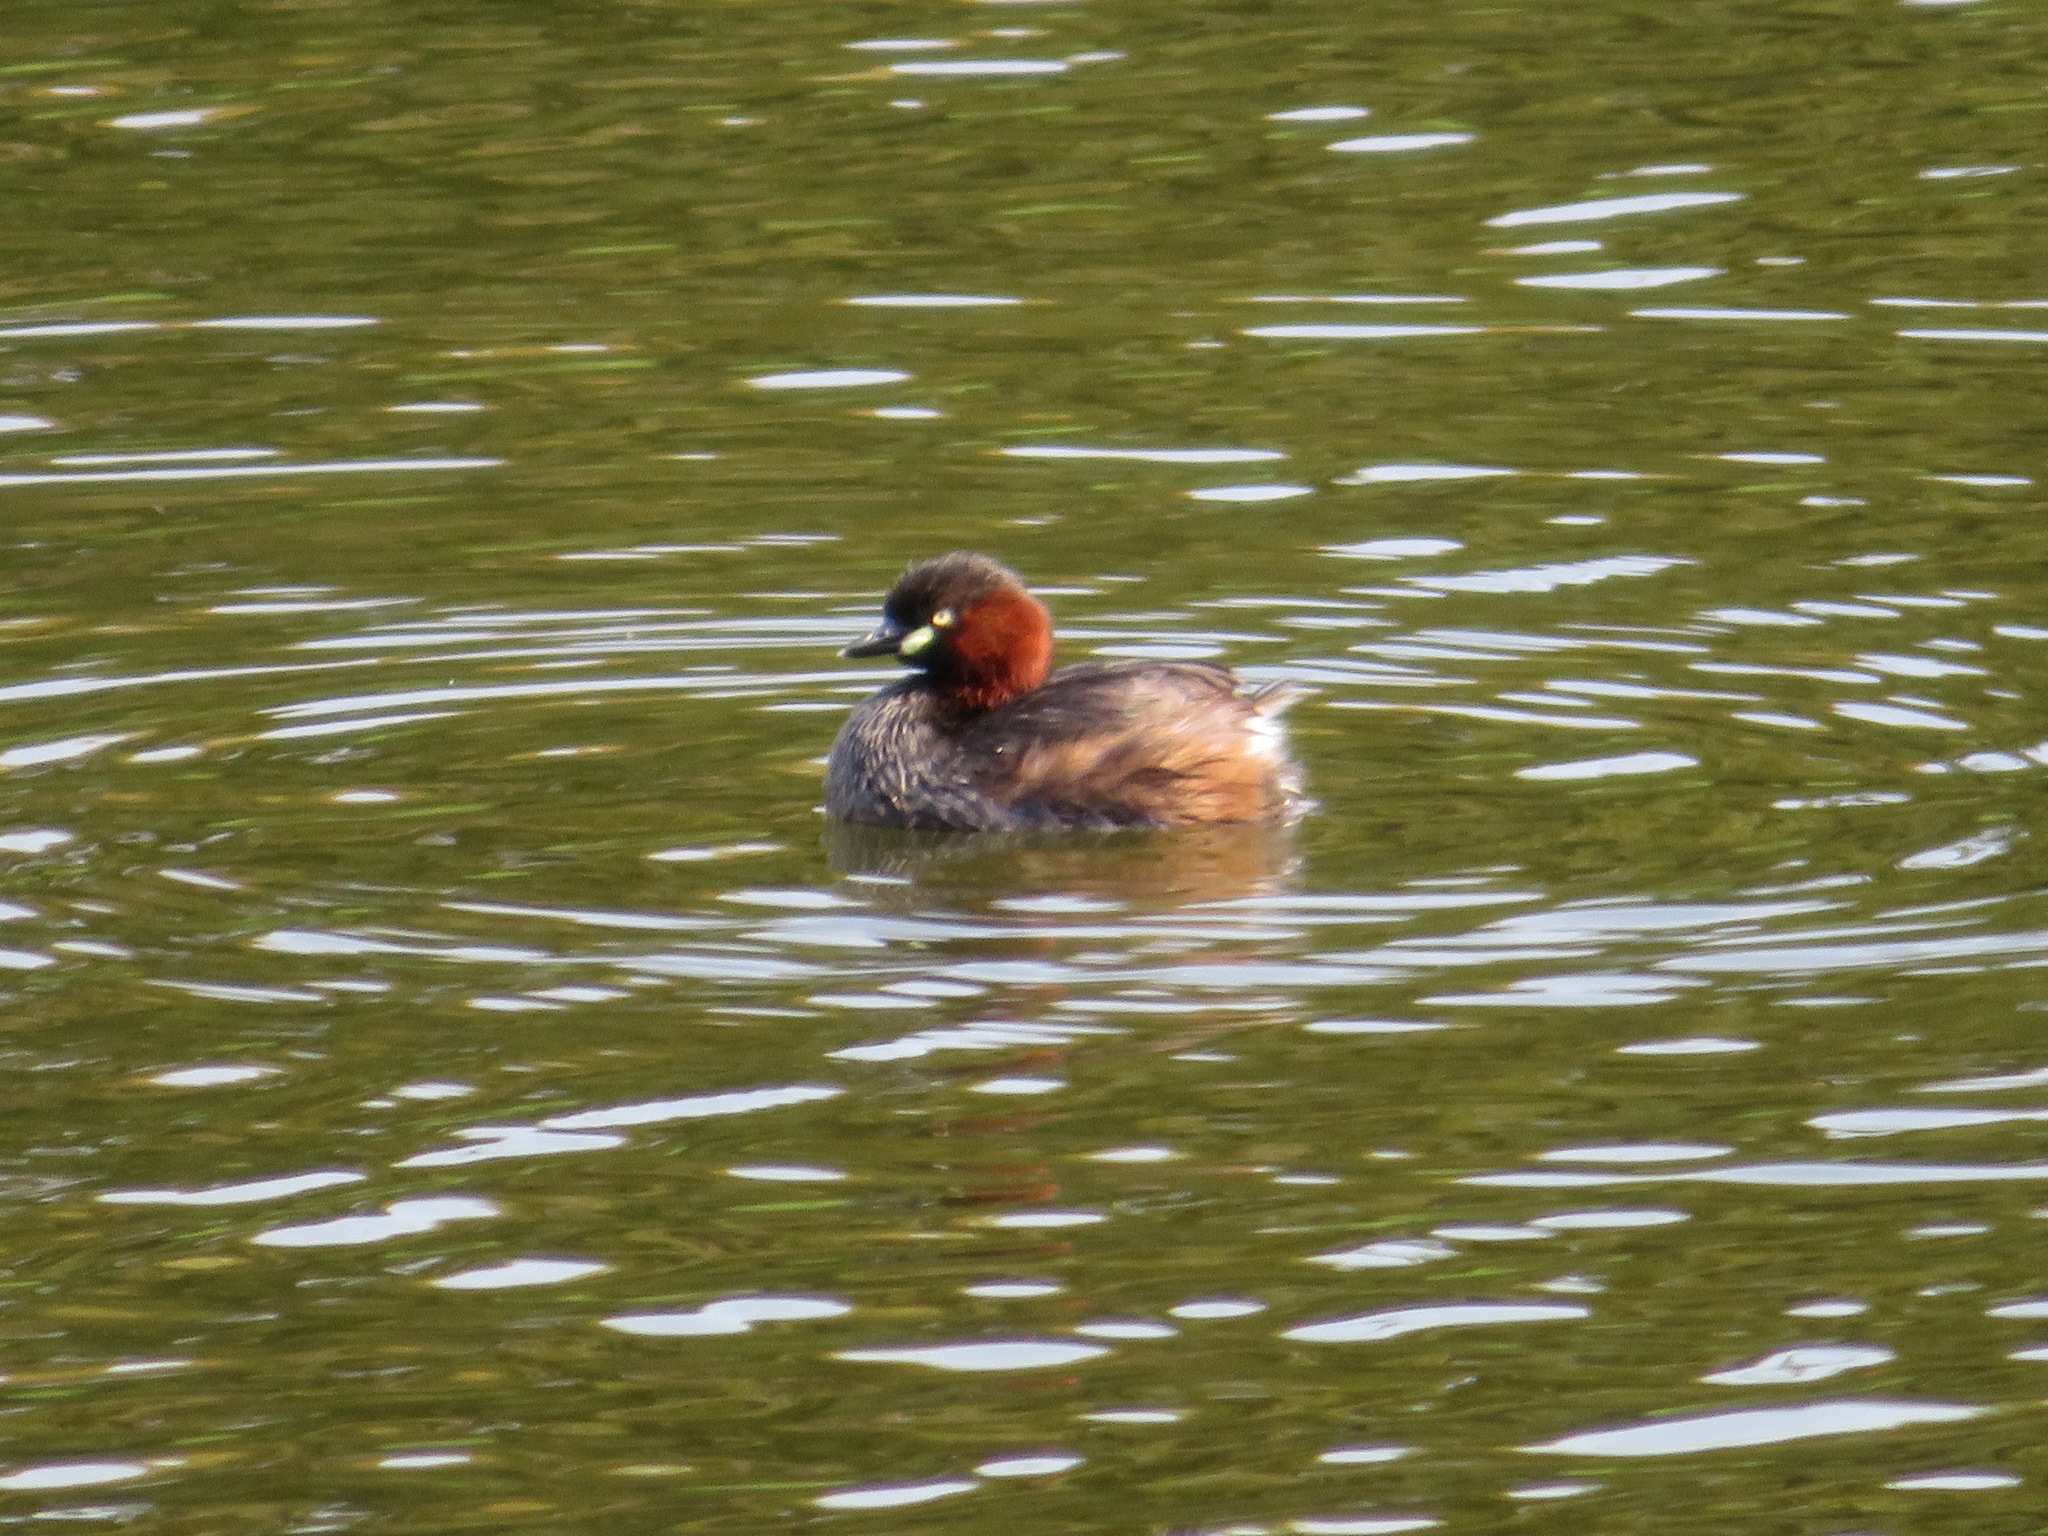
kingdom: Animalia
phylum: Chordata
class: Aves
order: Podicipediformes
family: Podicipedidae
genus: Tachybaptus
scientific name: Tachybaptus ruficollis
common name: Little grebe
